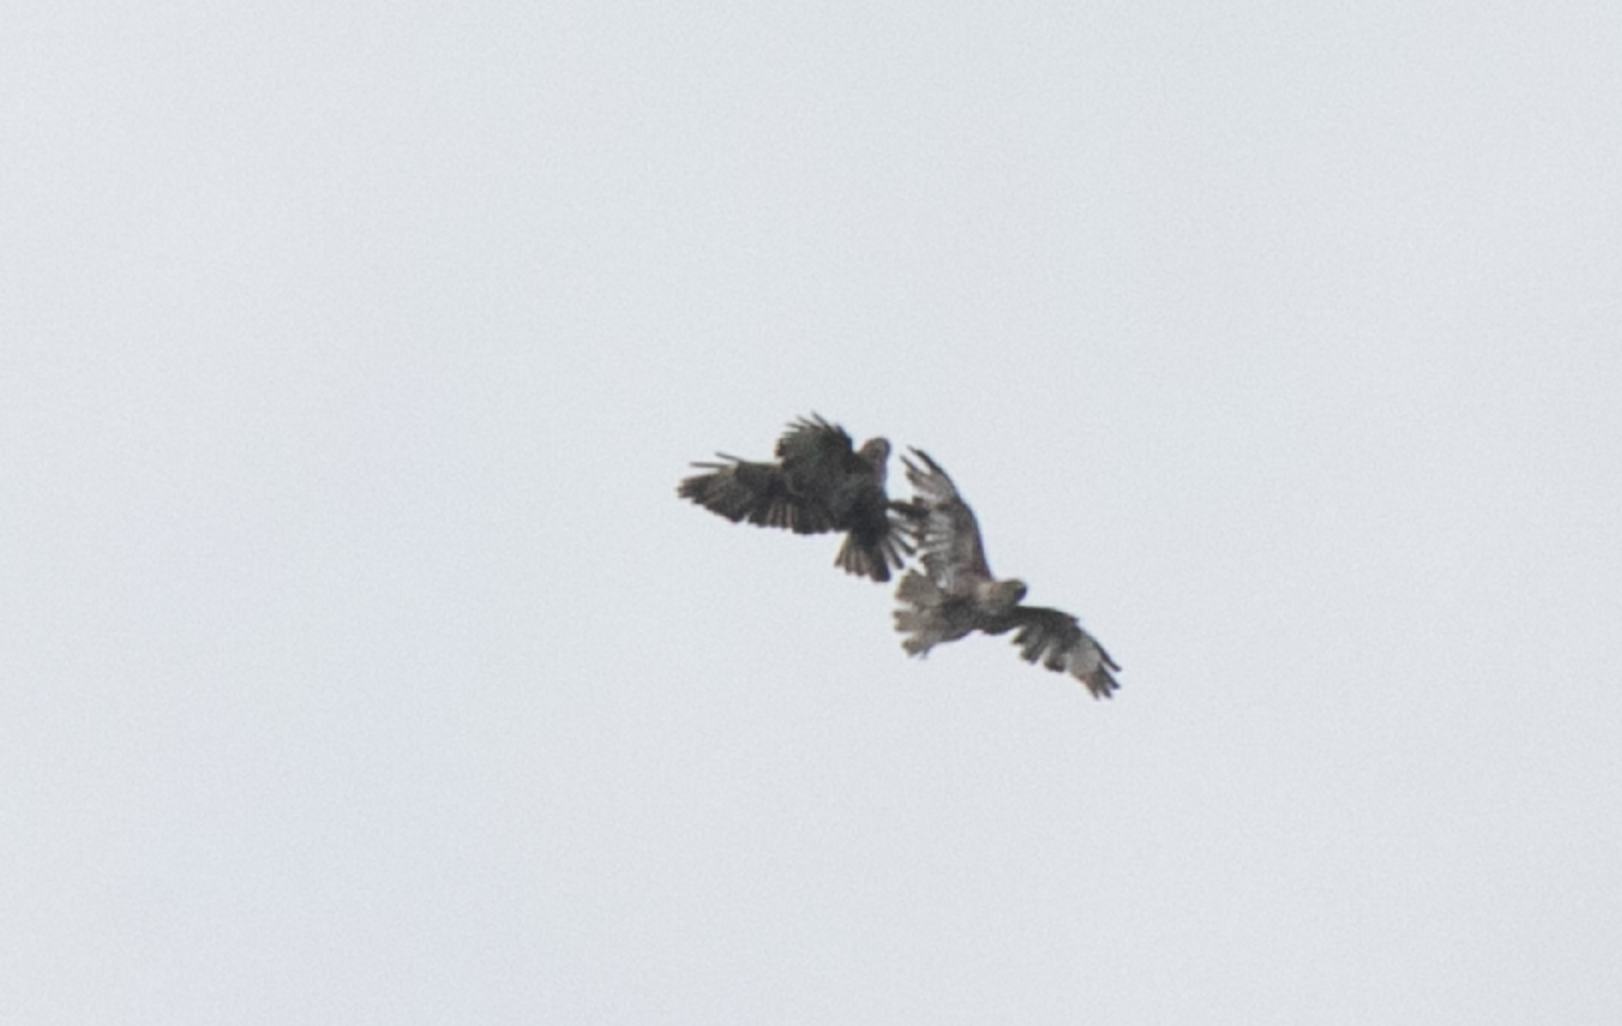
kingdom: Animalia
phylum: Chordata
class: Aves
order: Accipitriformes
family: Accipitridae
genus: Buteo
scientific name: Buteo buteo
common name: Common buzzard
